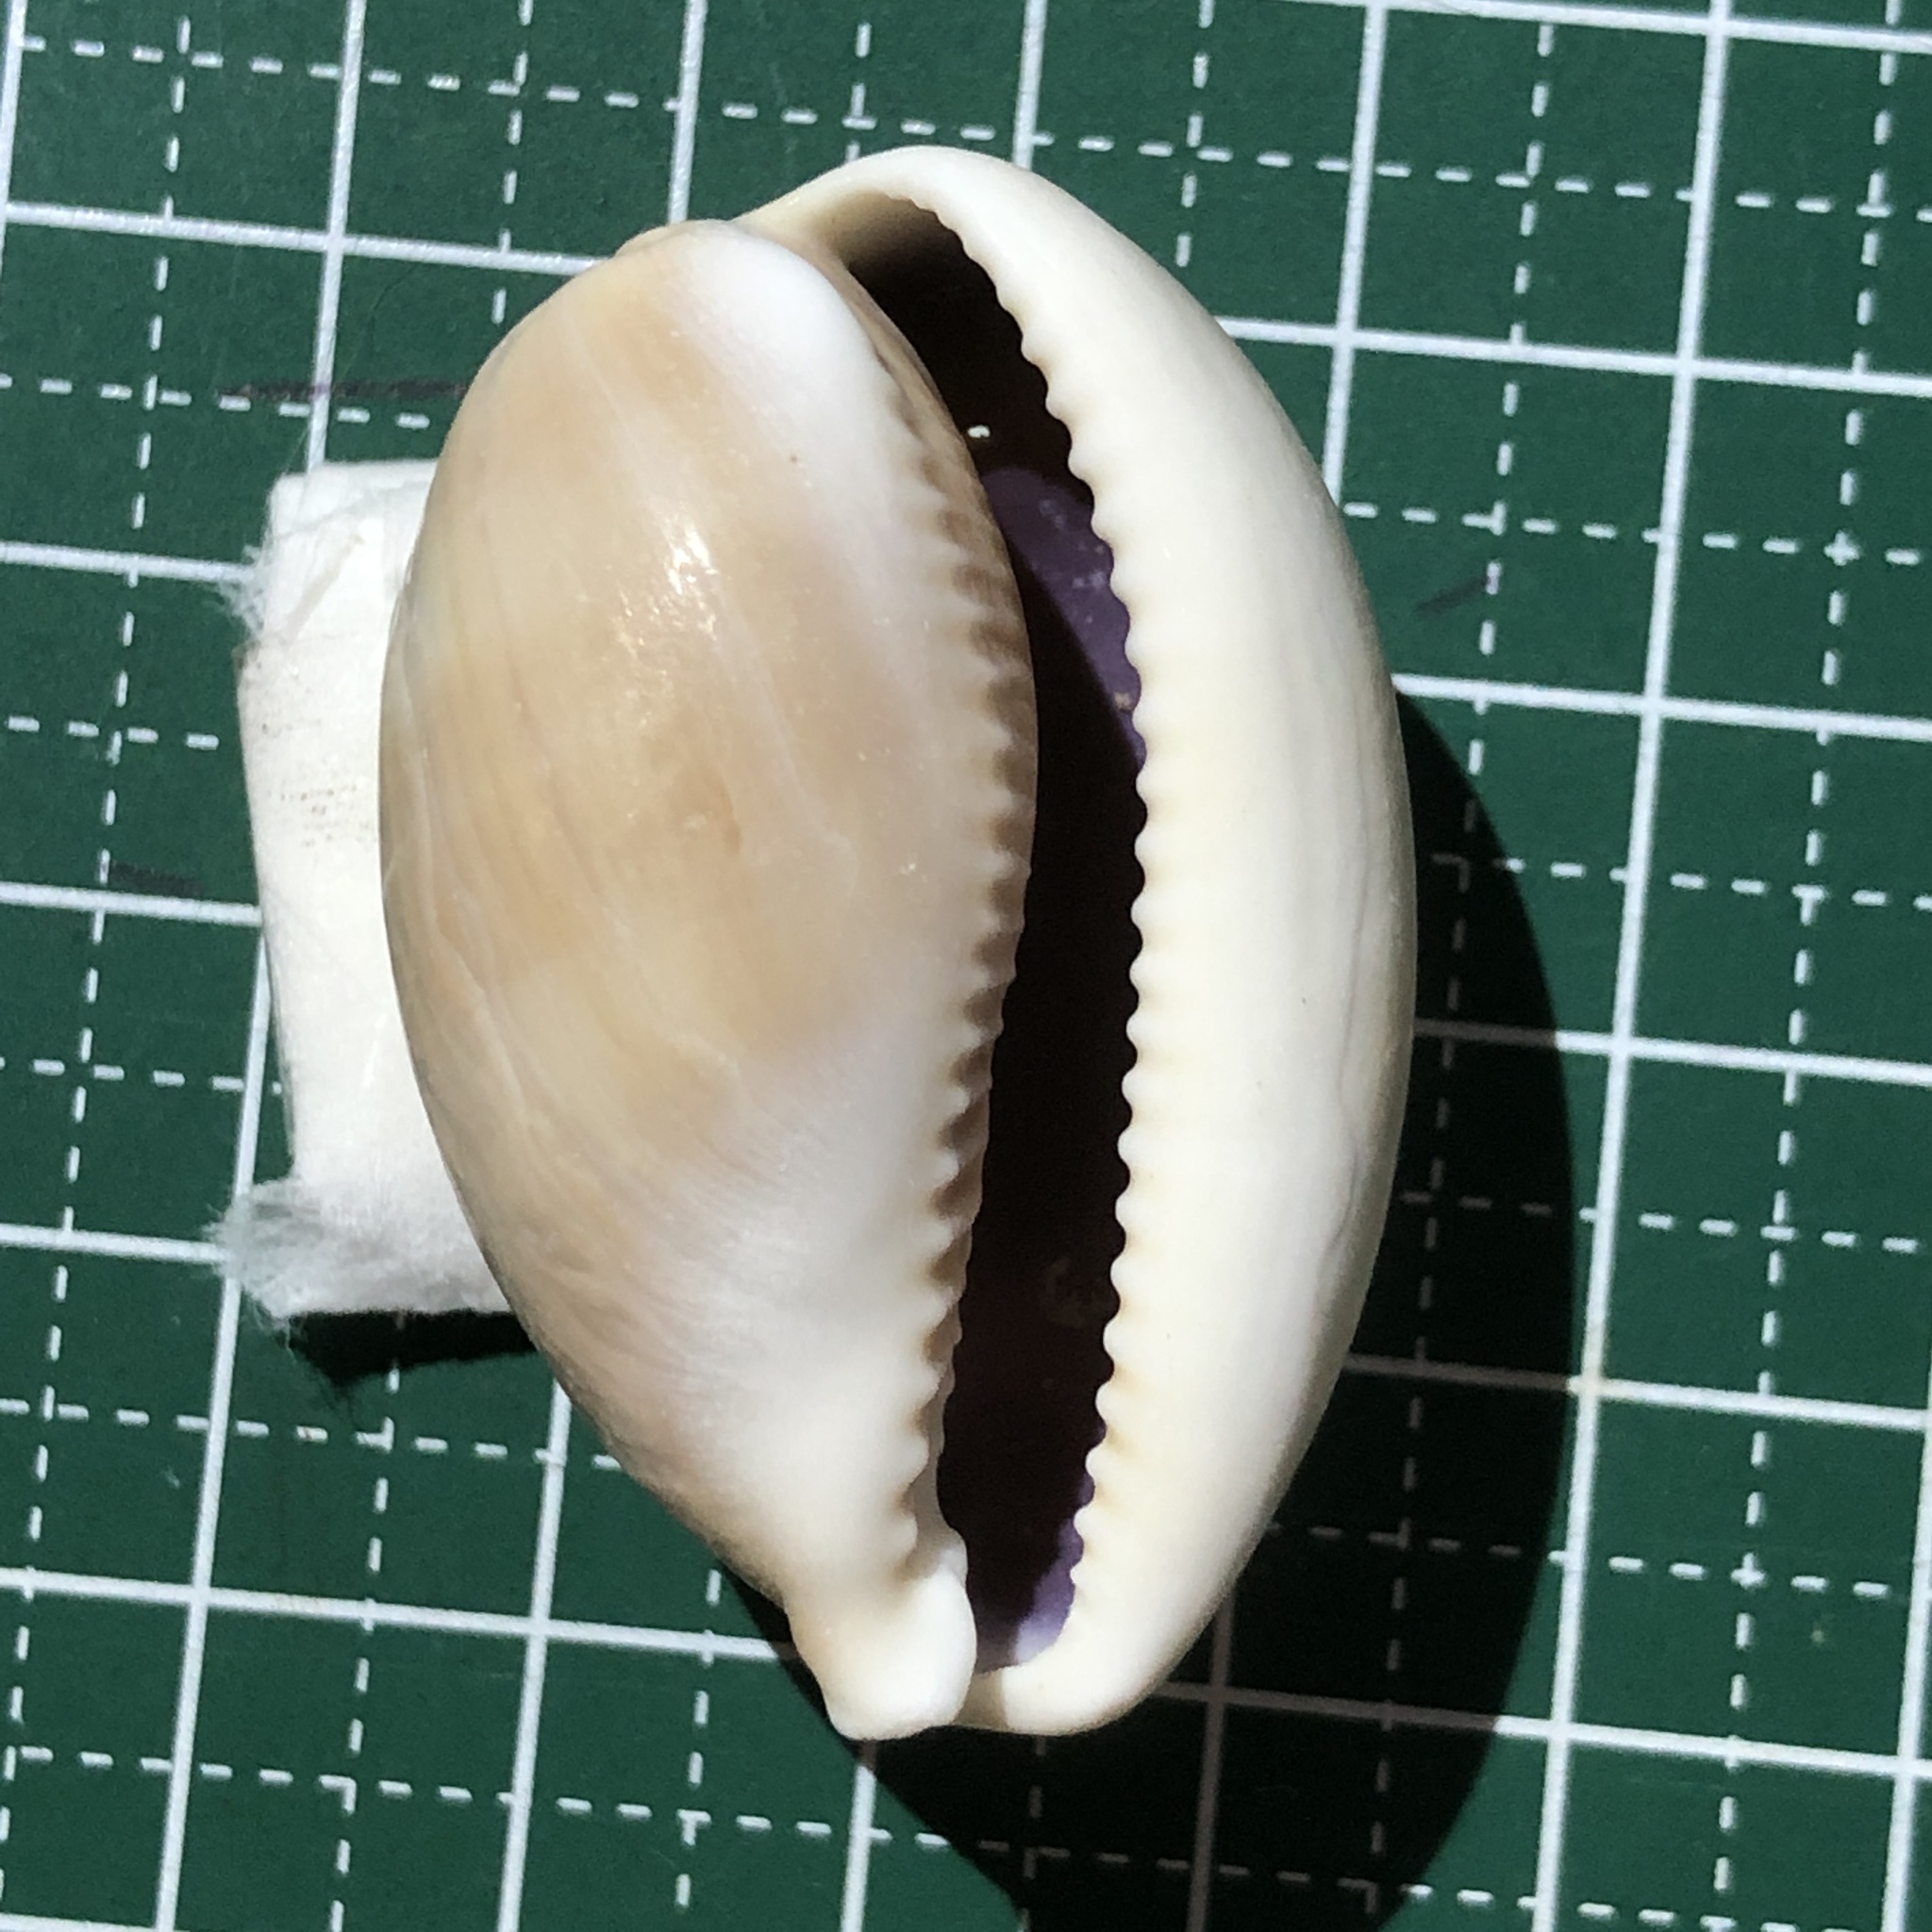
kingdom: Animalia
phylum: Mollusca
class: Gastropoda
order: Littorinimorpha
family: Cypraeidae
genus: Lyncina
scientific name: Lyncina vitellus
